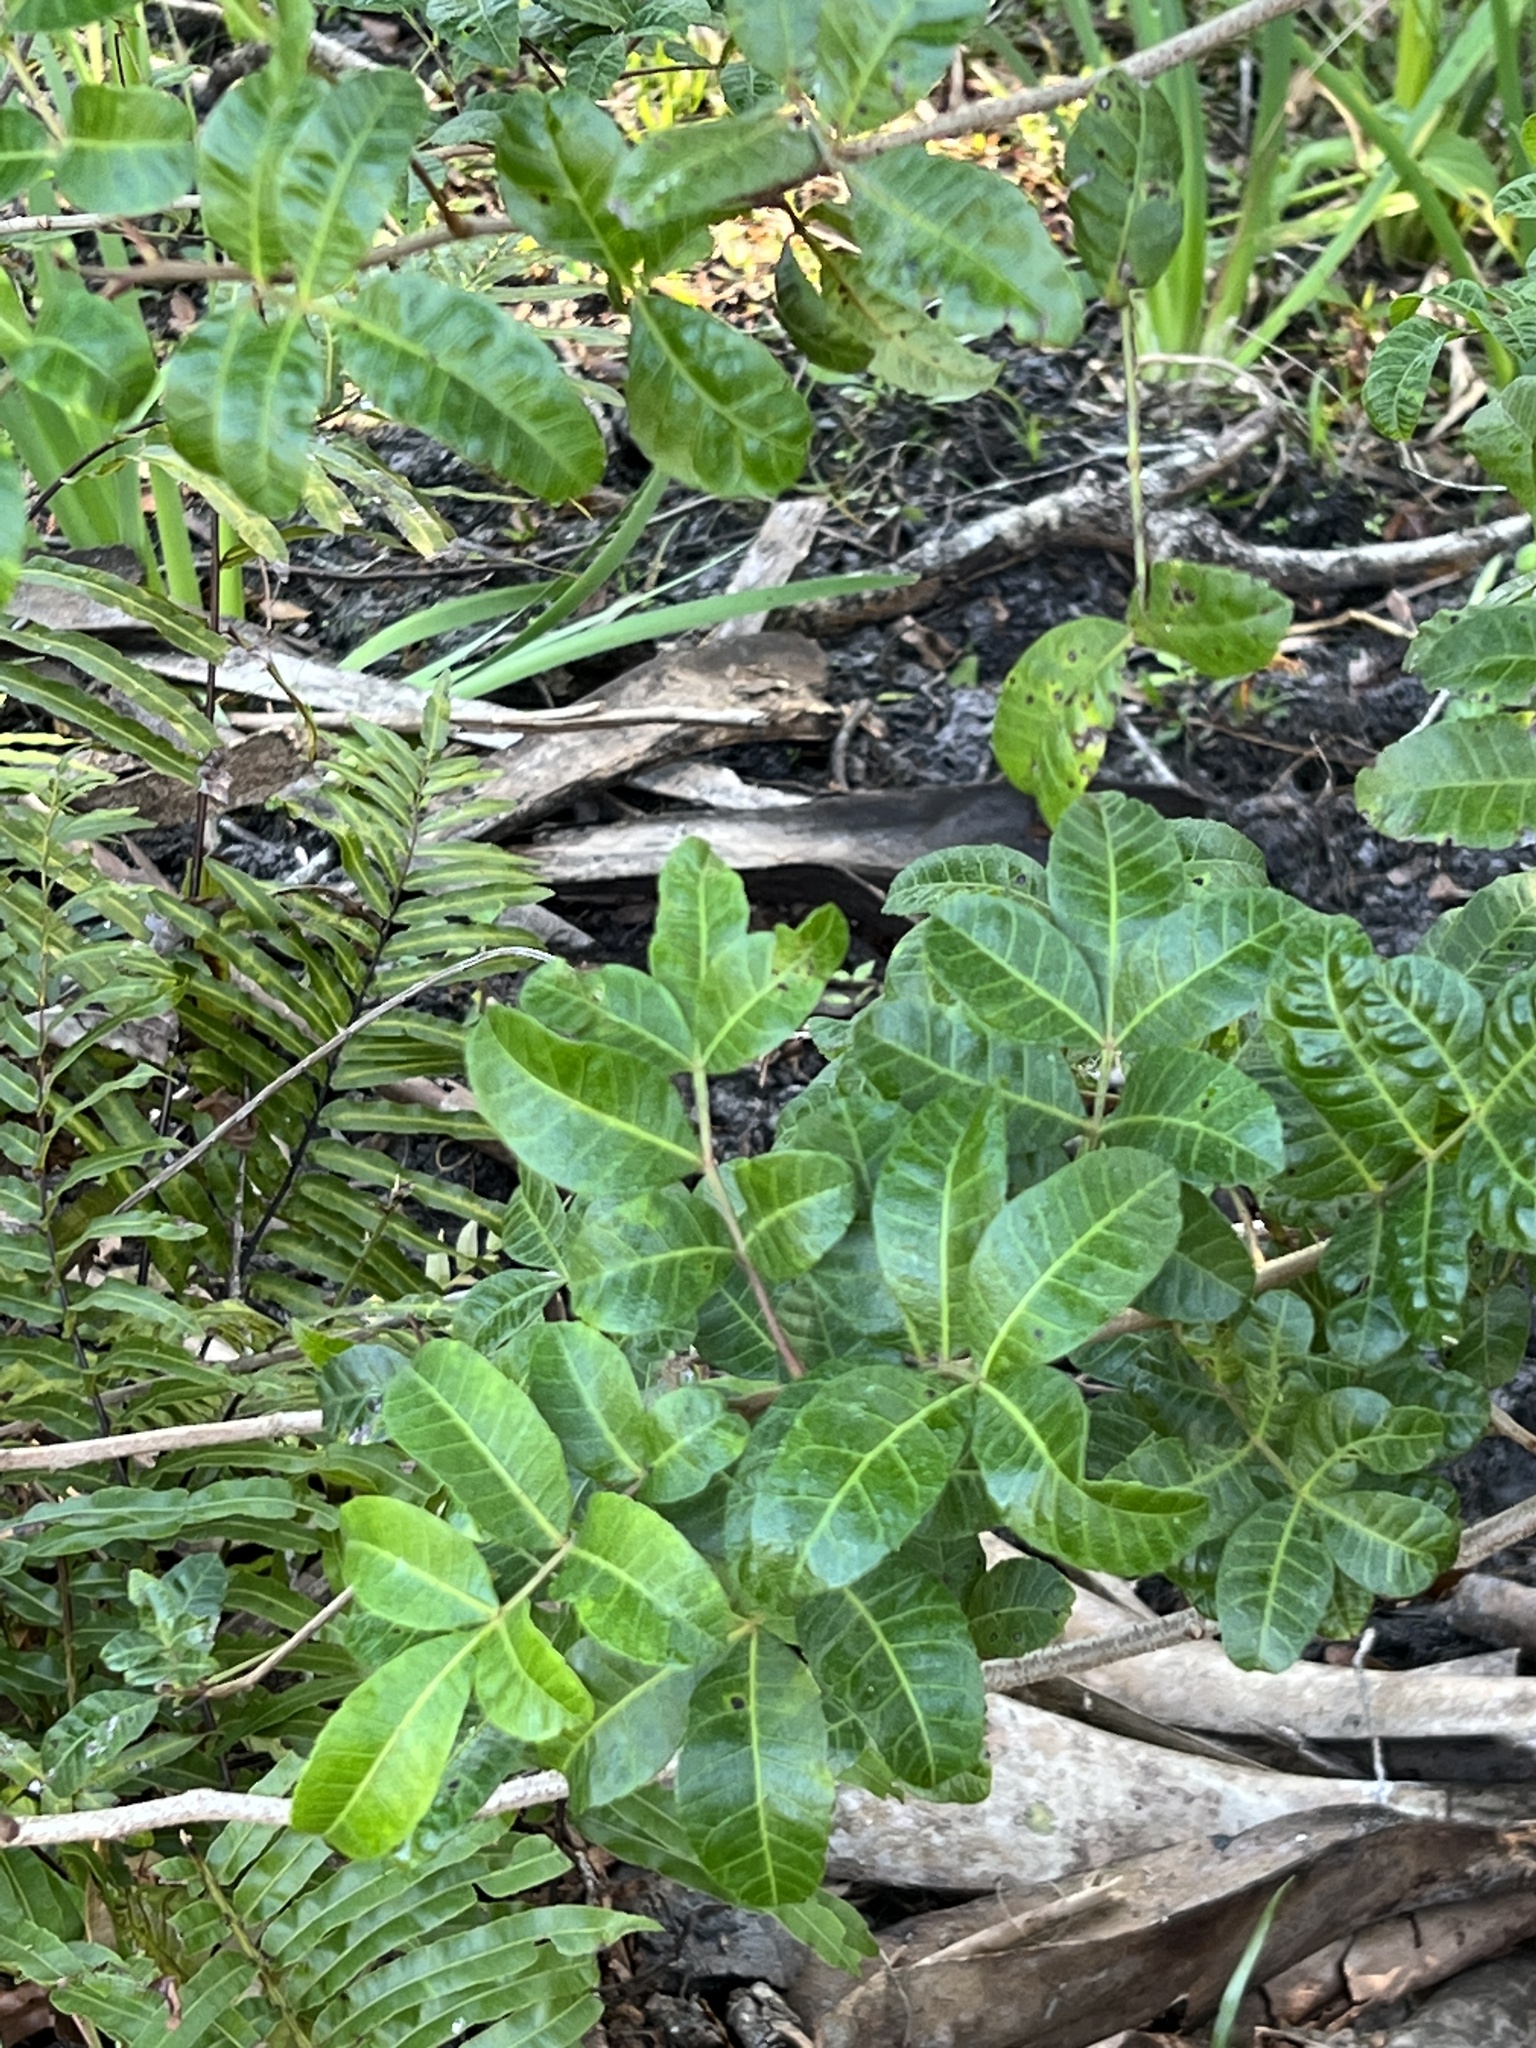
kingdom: Plantae
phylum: Tracheophyta
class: Magnoliopsida
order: Sapindales
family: Anacardiaceae
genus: Schinus
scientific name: Schinus terebinthifolia
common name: Brazilian peppertree
